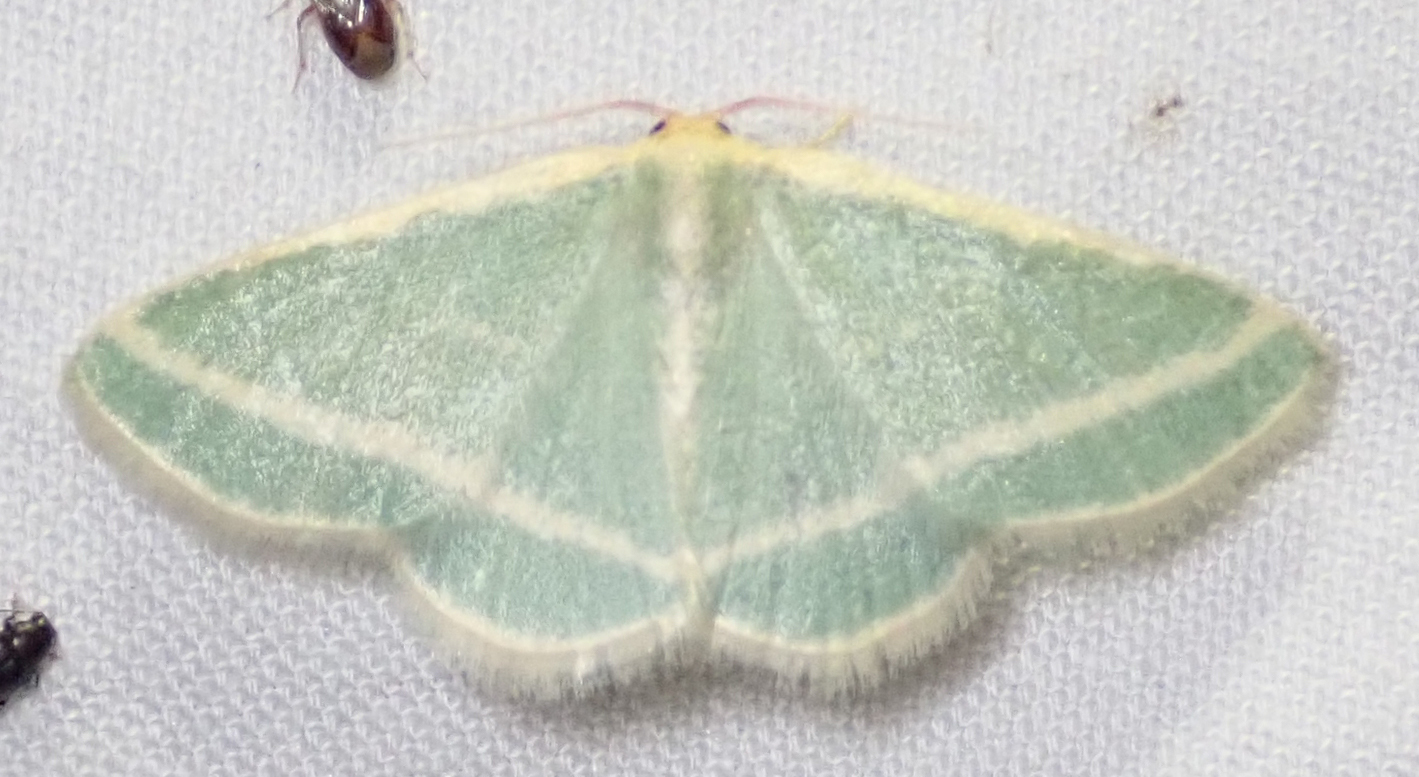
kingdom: Animalia
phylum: Arthropoda
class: Insecta
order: Lepidoptera
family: Geometridae
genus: Mixocera
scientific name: Mixocera frustratoria
